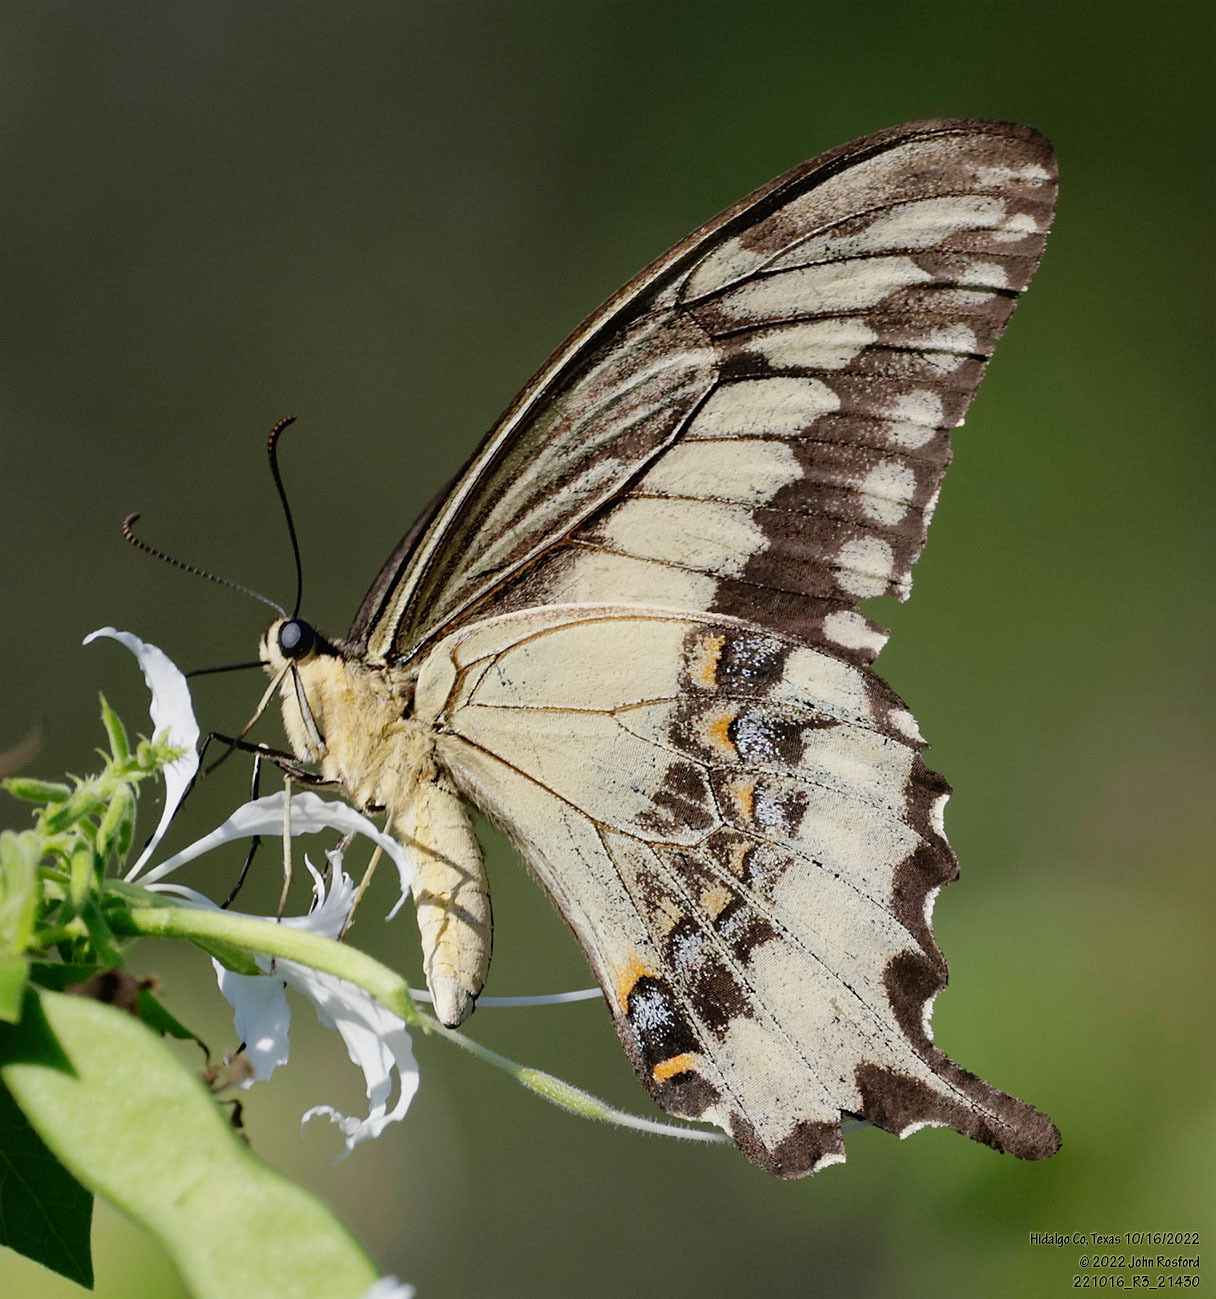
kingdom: Animalia
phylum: Arthropoda
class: Insecta
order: Lepidoptera
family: Papilionidae
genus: Papilio
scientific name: Papilio ornythion
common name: Ornythion swallowtail
